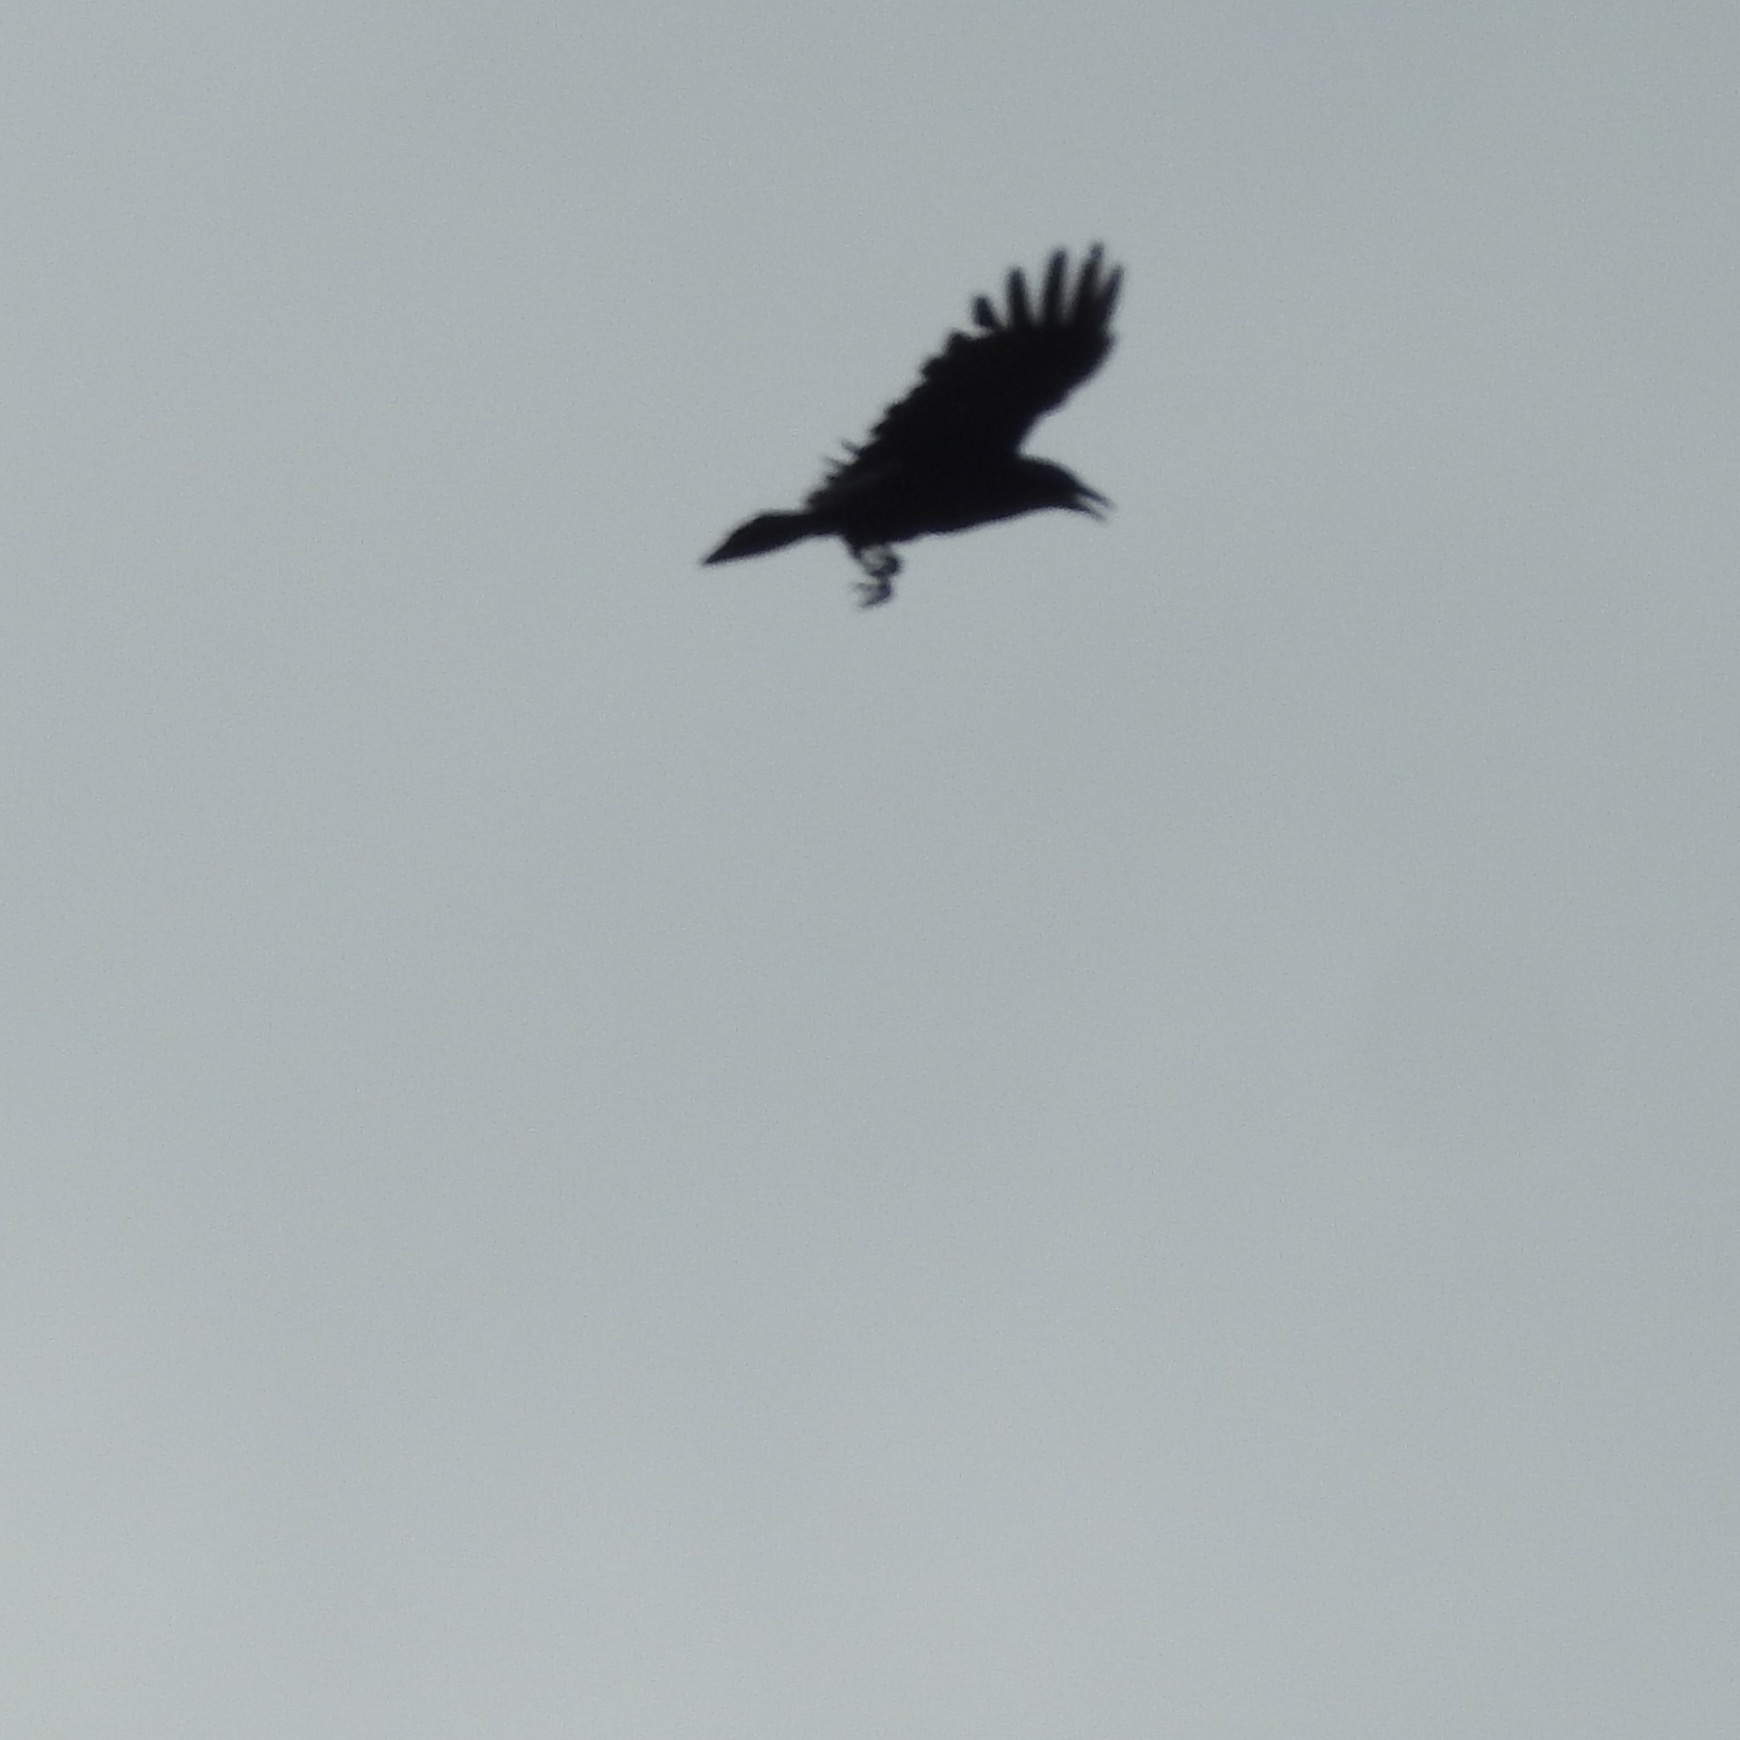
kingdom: Animalia
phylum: Chordata
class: Aves
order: Passeriformes
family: Corvidae
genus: Corvus
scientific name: Corvus brachyrhynchos
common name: American crow
